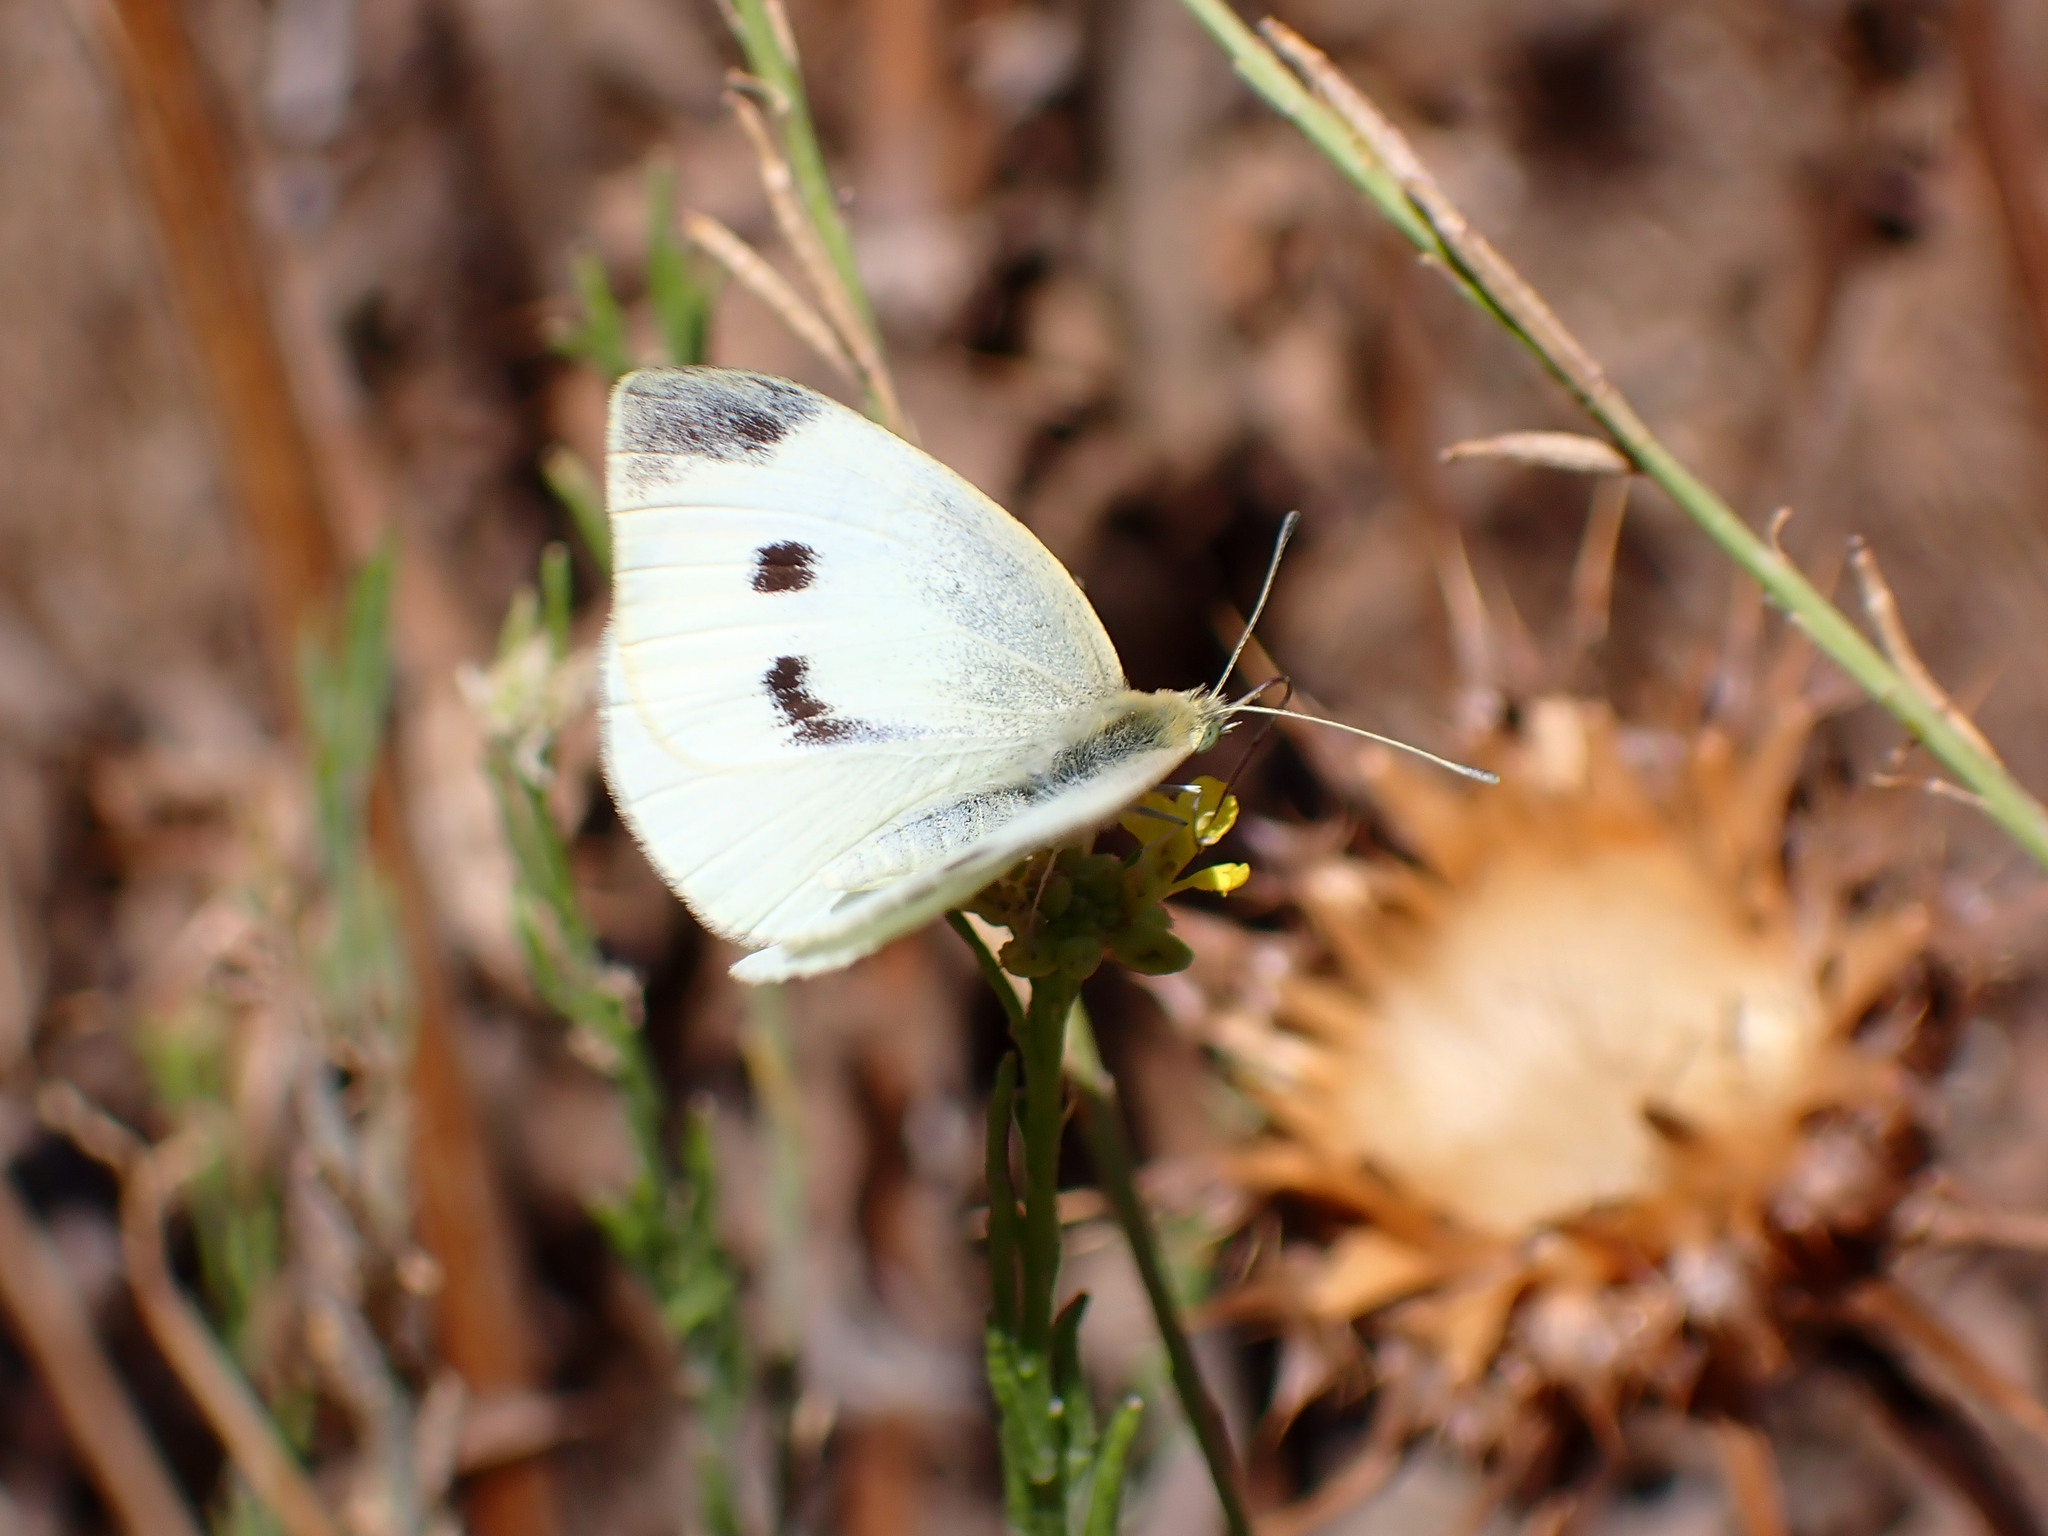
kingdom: Animalia
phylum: Arthropoda
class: Insecta
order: Lepidoptera
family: Pieridae
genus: Pieris
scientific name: Pieris rapae
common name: Small white
